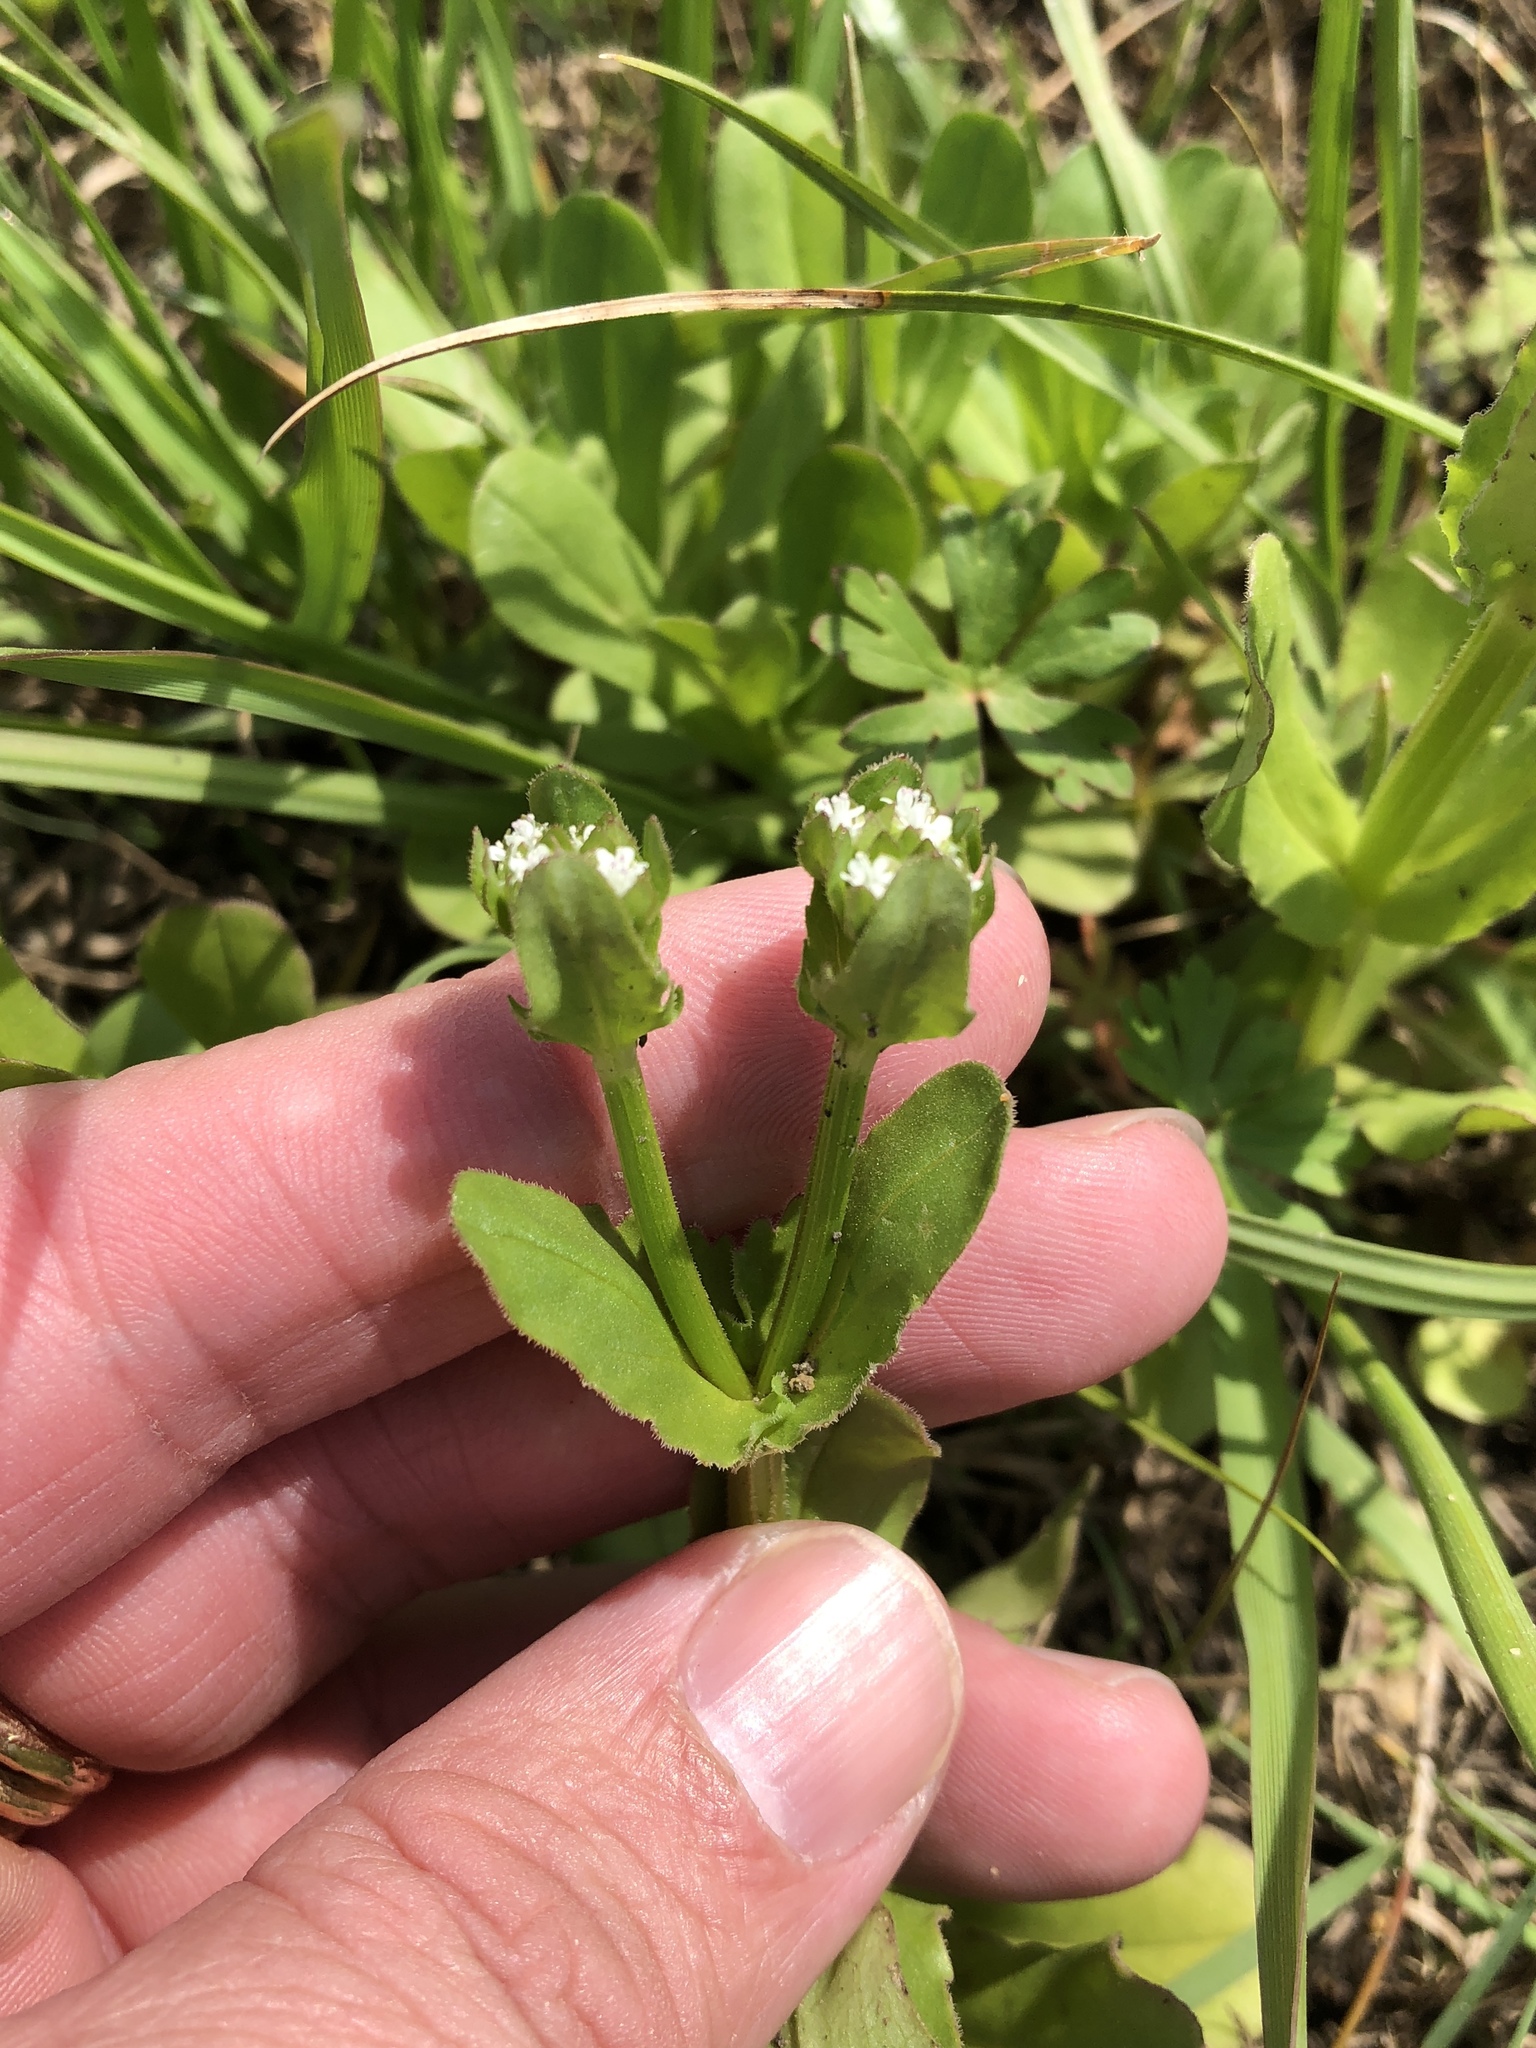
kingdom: Plantae
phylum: Tracheophyta
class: Magnoliopsida
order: Dipsacales
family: Caprifoliaceae
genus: Valerianella
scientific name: Valerianella radiata
